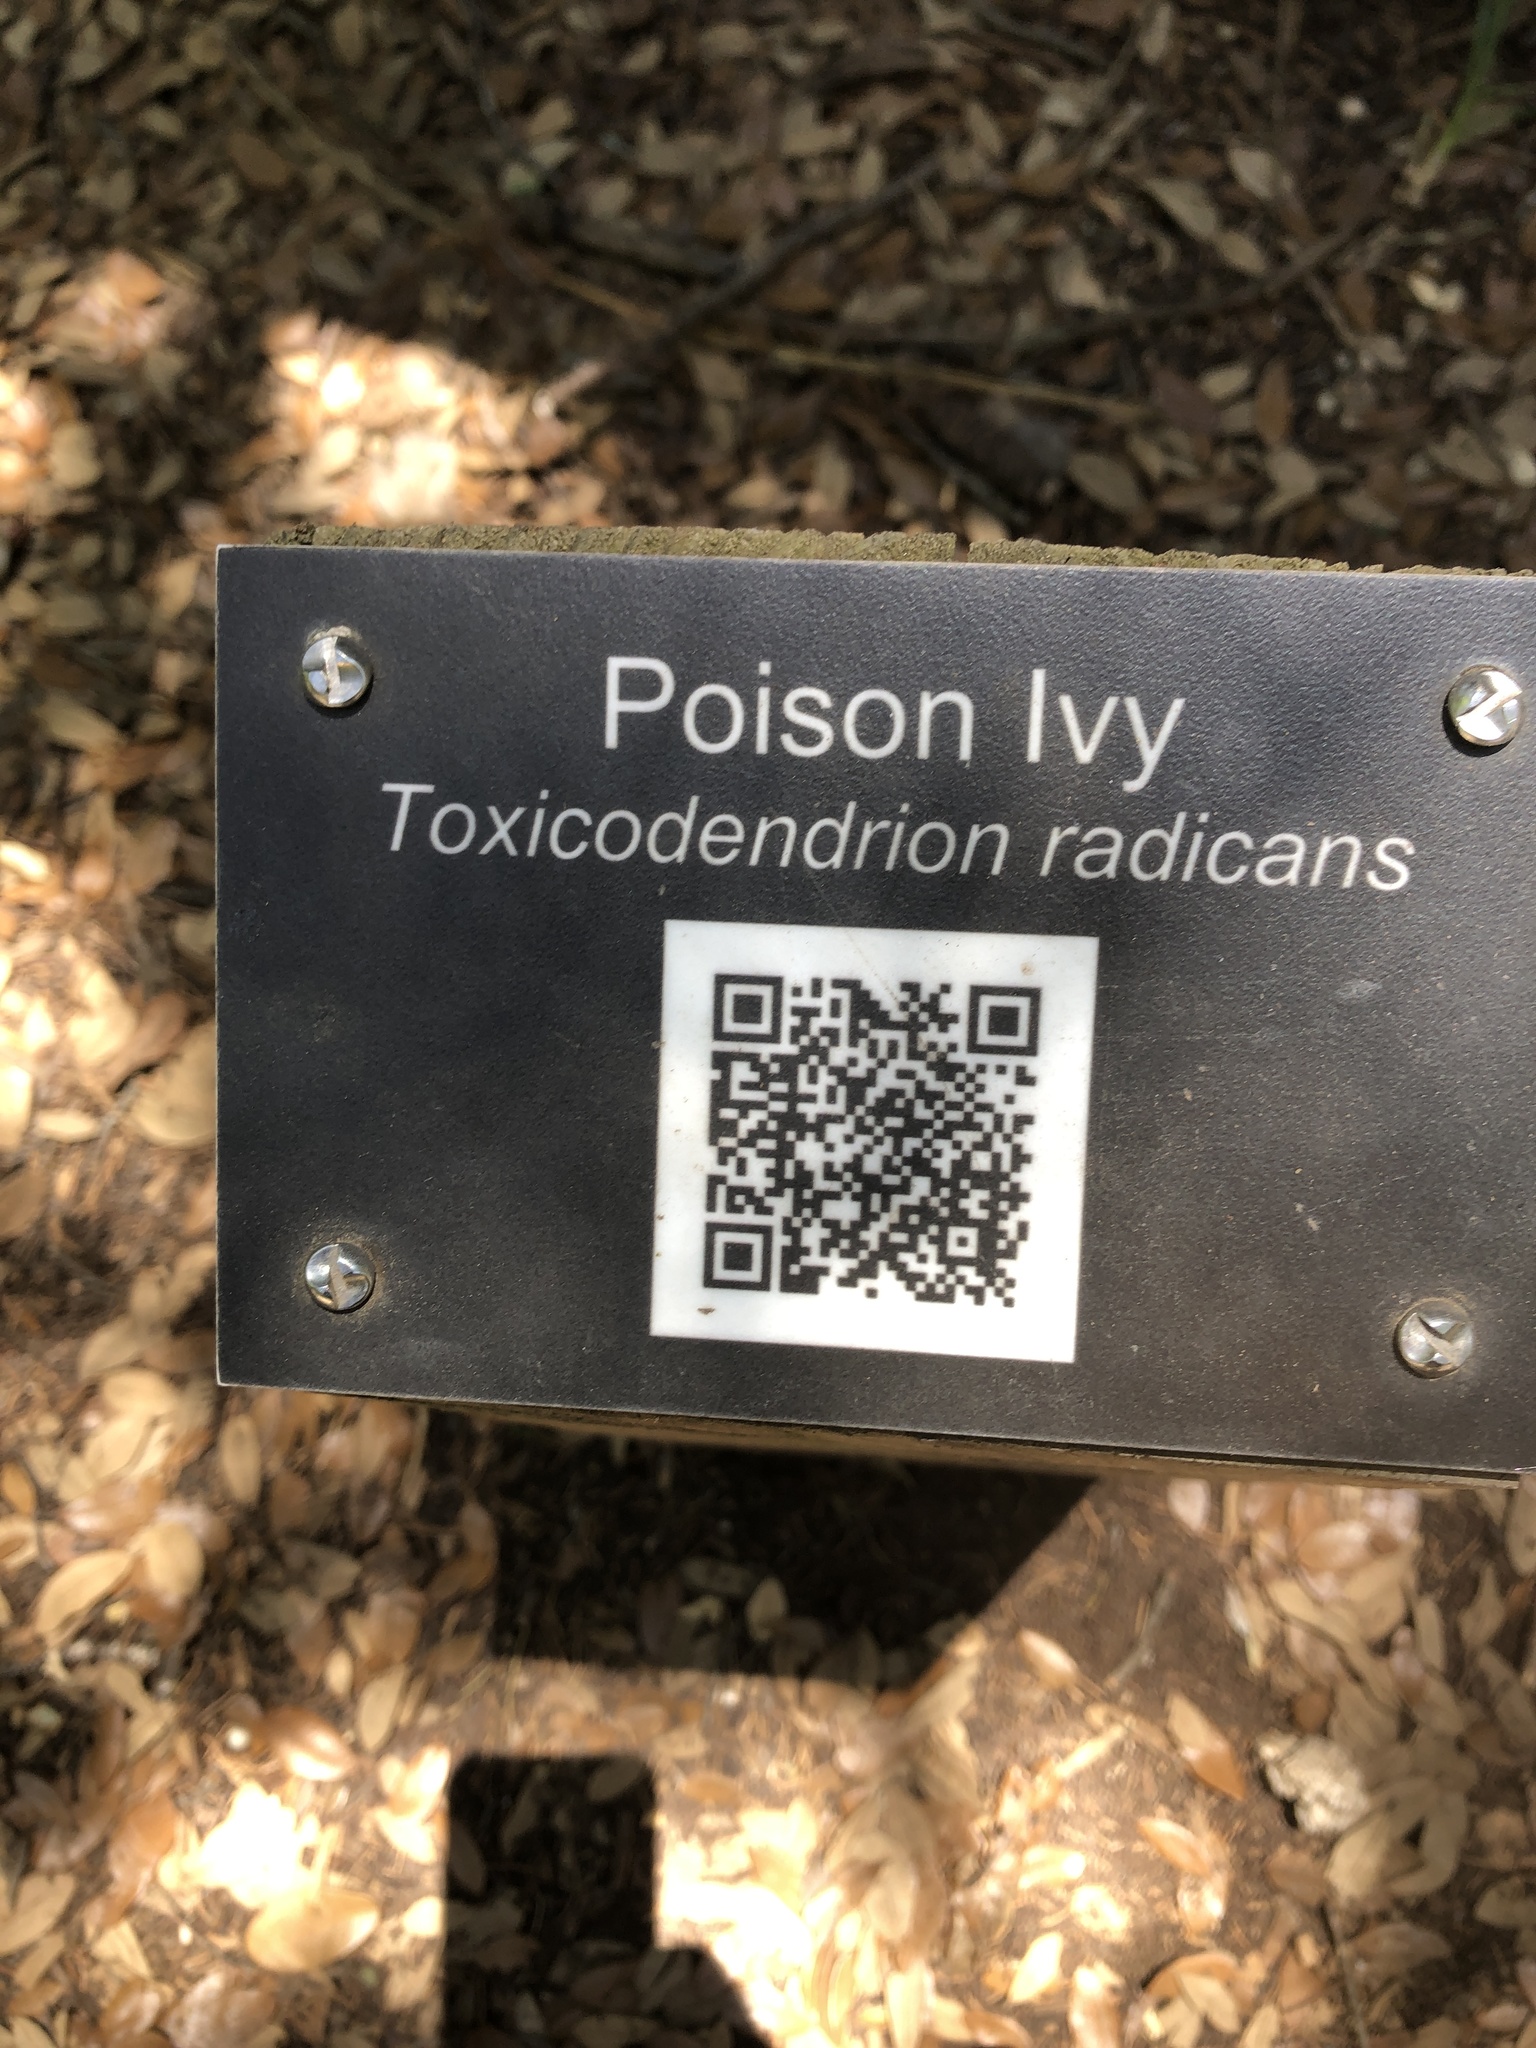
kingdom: Plantae
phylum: Tracheophyta
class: Magnoliopsida
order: Sapindales
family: Anacardiaceae
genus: Toxicodendron
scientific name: Toxicodendron radicans
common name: Poison ivy
